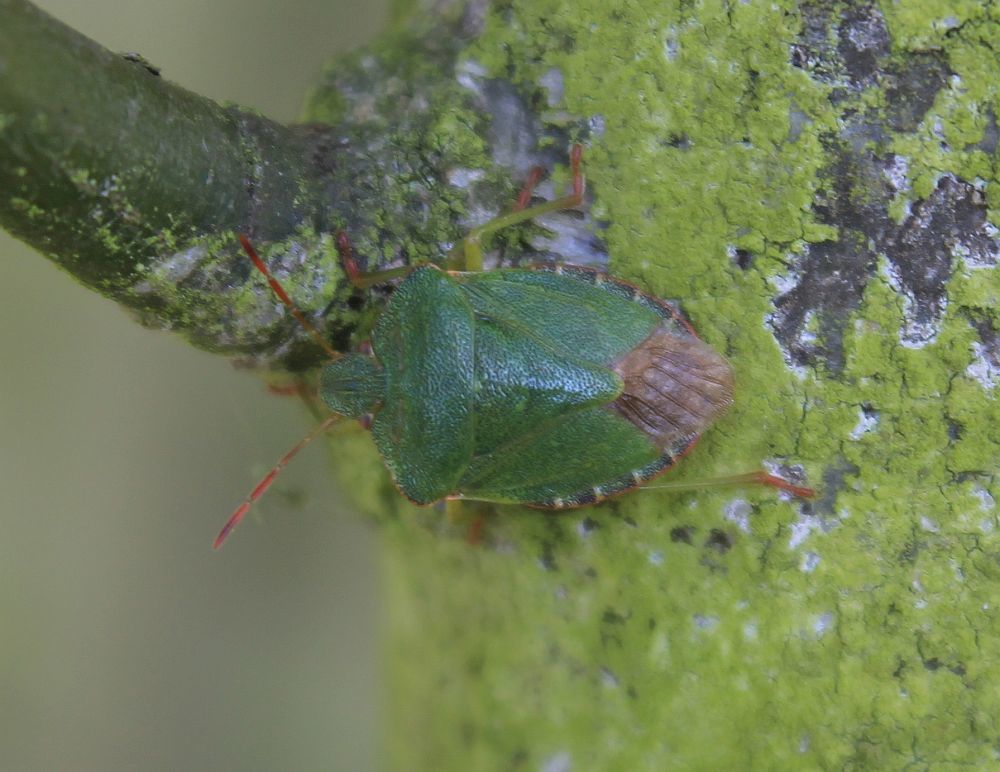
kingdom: Animalia
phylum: Arthropoda
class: Insecta
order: Hemiptera
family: Pentatomidae
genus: Palomena
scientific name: Palomena prasina
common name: Green shieldbug
